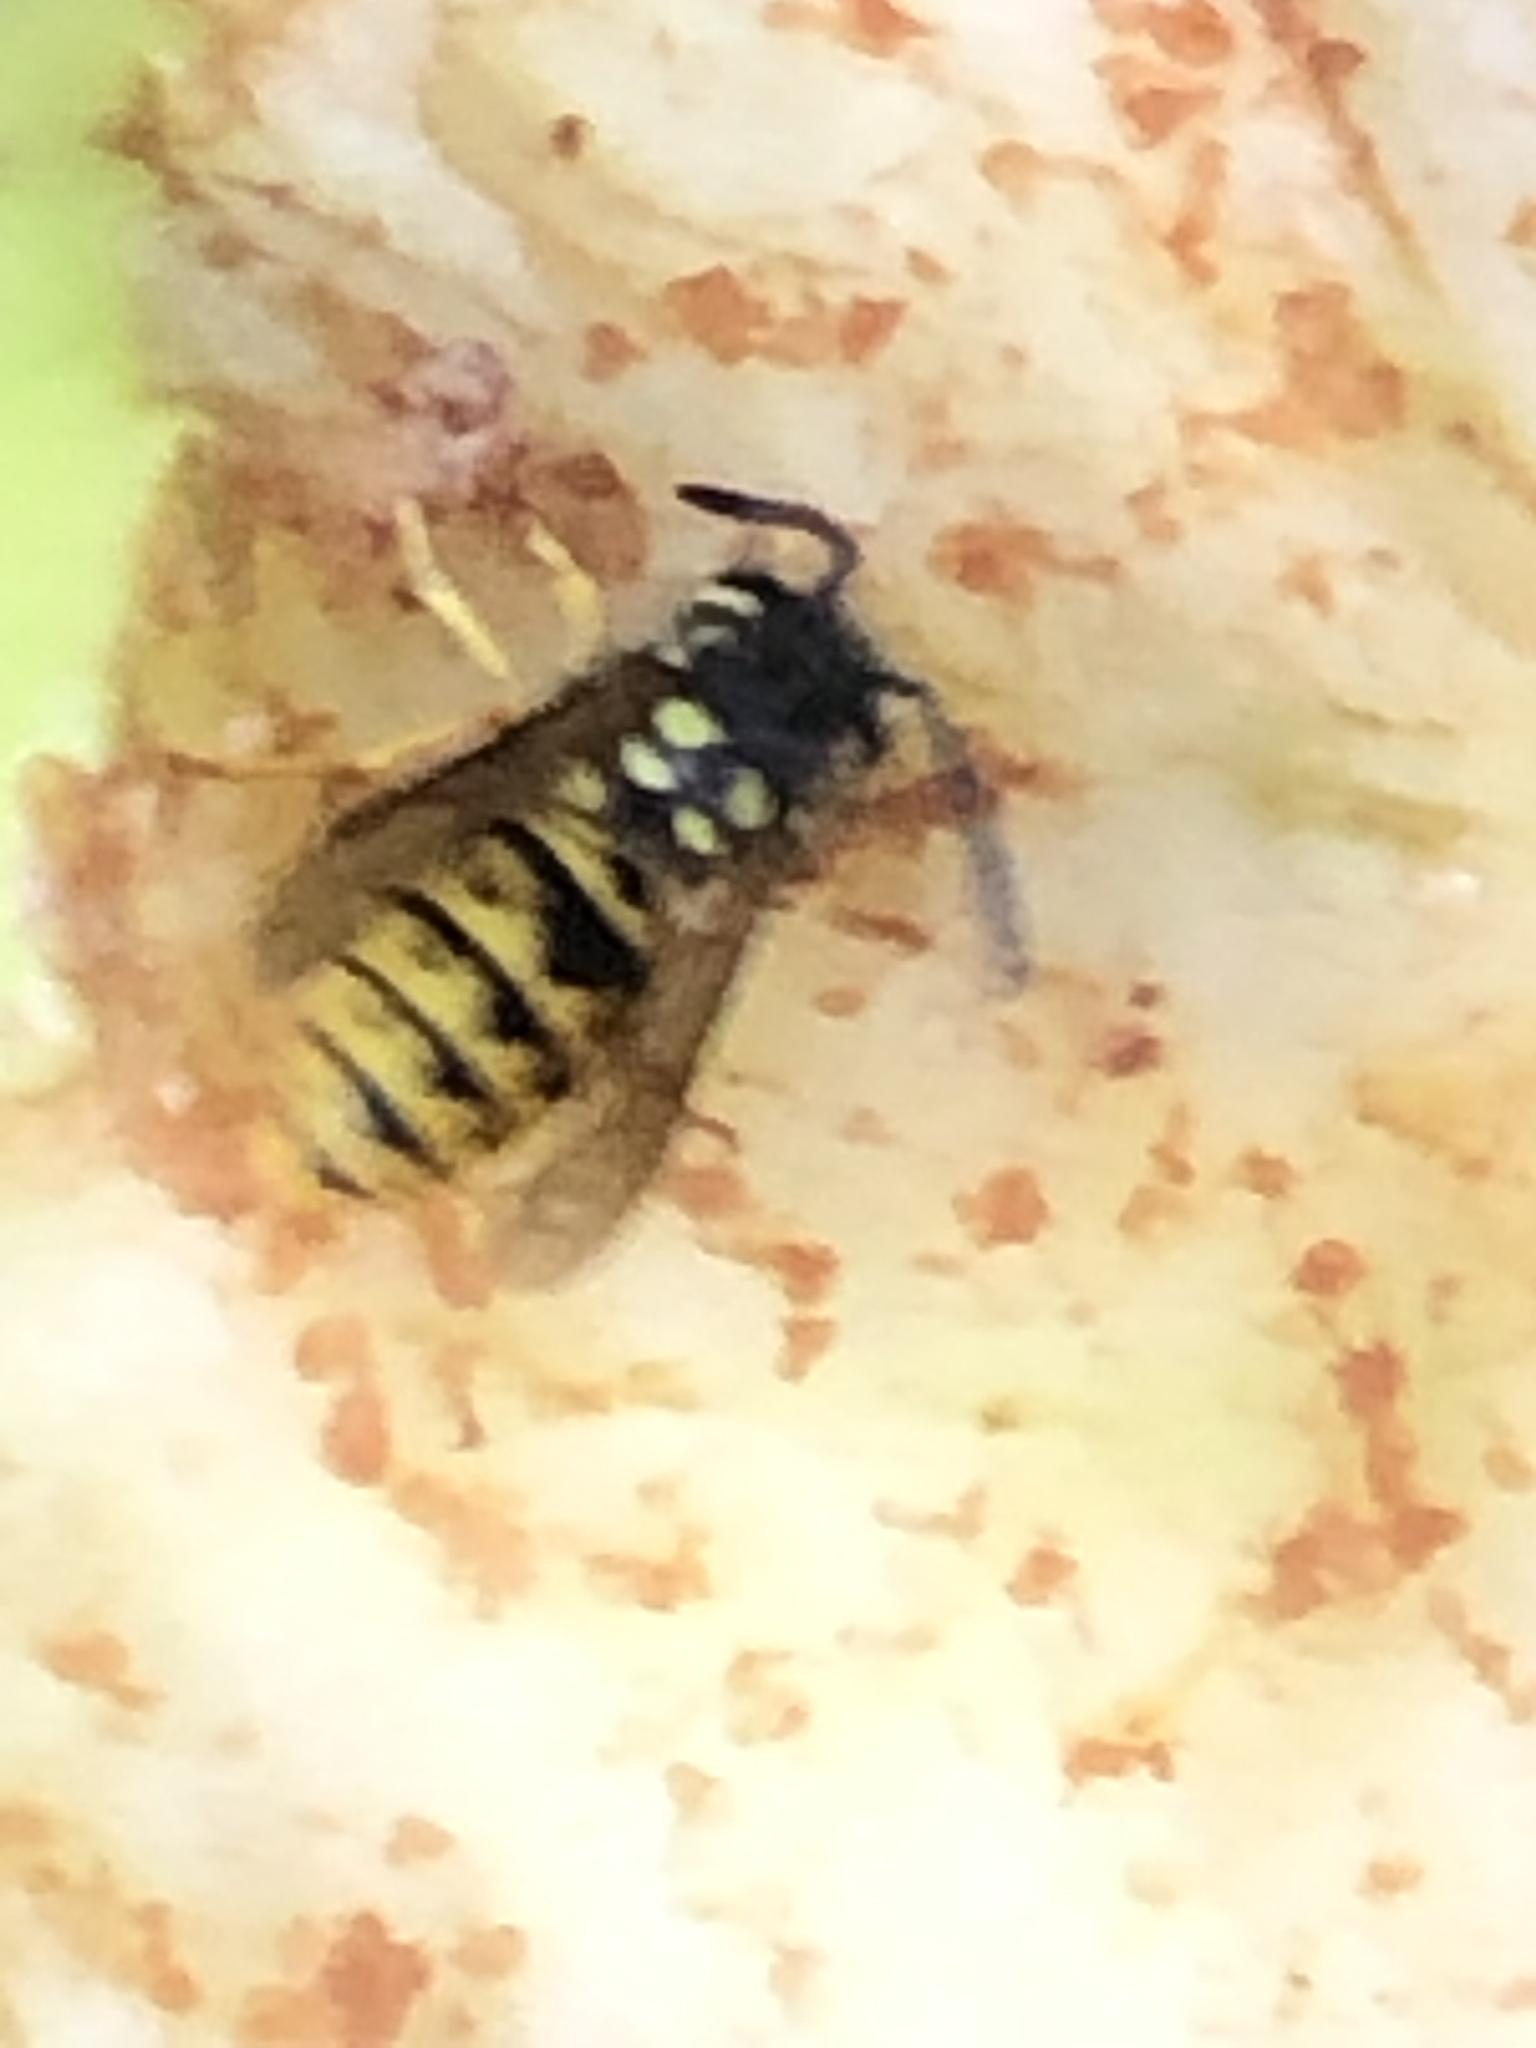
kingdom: Animalia
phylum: Arthropoda
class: Insecta
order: Hymenoptera
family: Vespidae
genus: Vespula
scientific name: Vespula germanica
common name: German wasp
